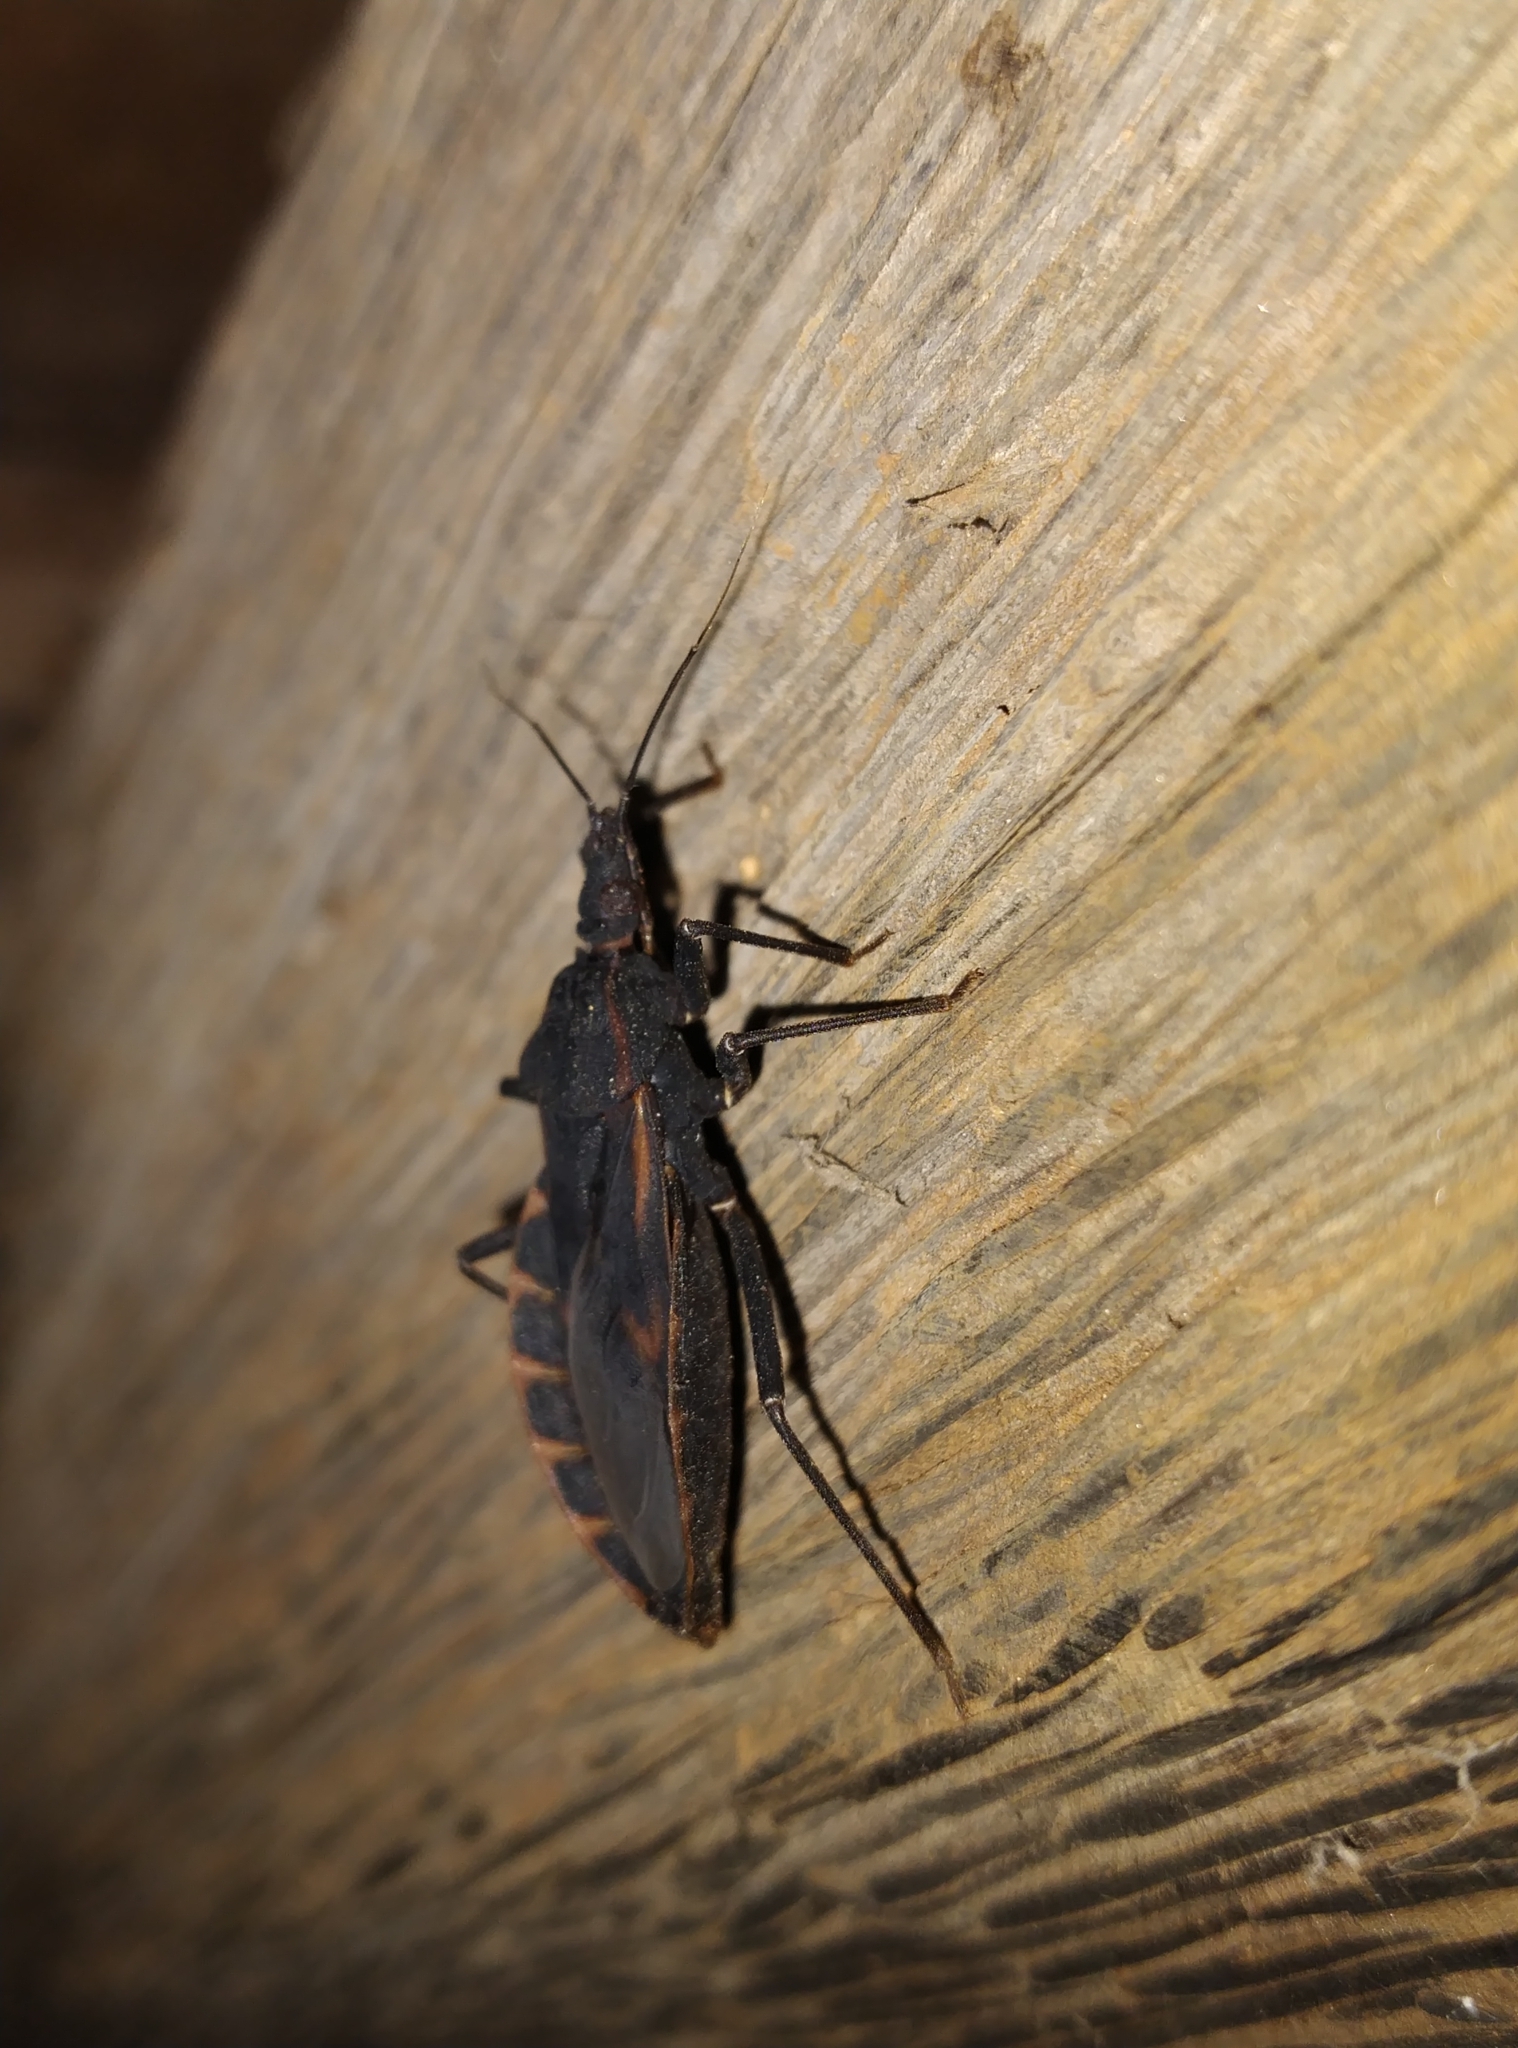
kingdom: Animalia
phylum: Arthropoda
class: Insecta
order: Hemiptera
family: Reduviidae
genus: Triatoma
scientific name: Triatoma rubrofasciata
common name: Assassin bug
